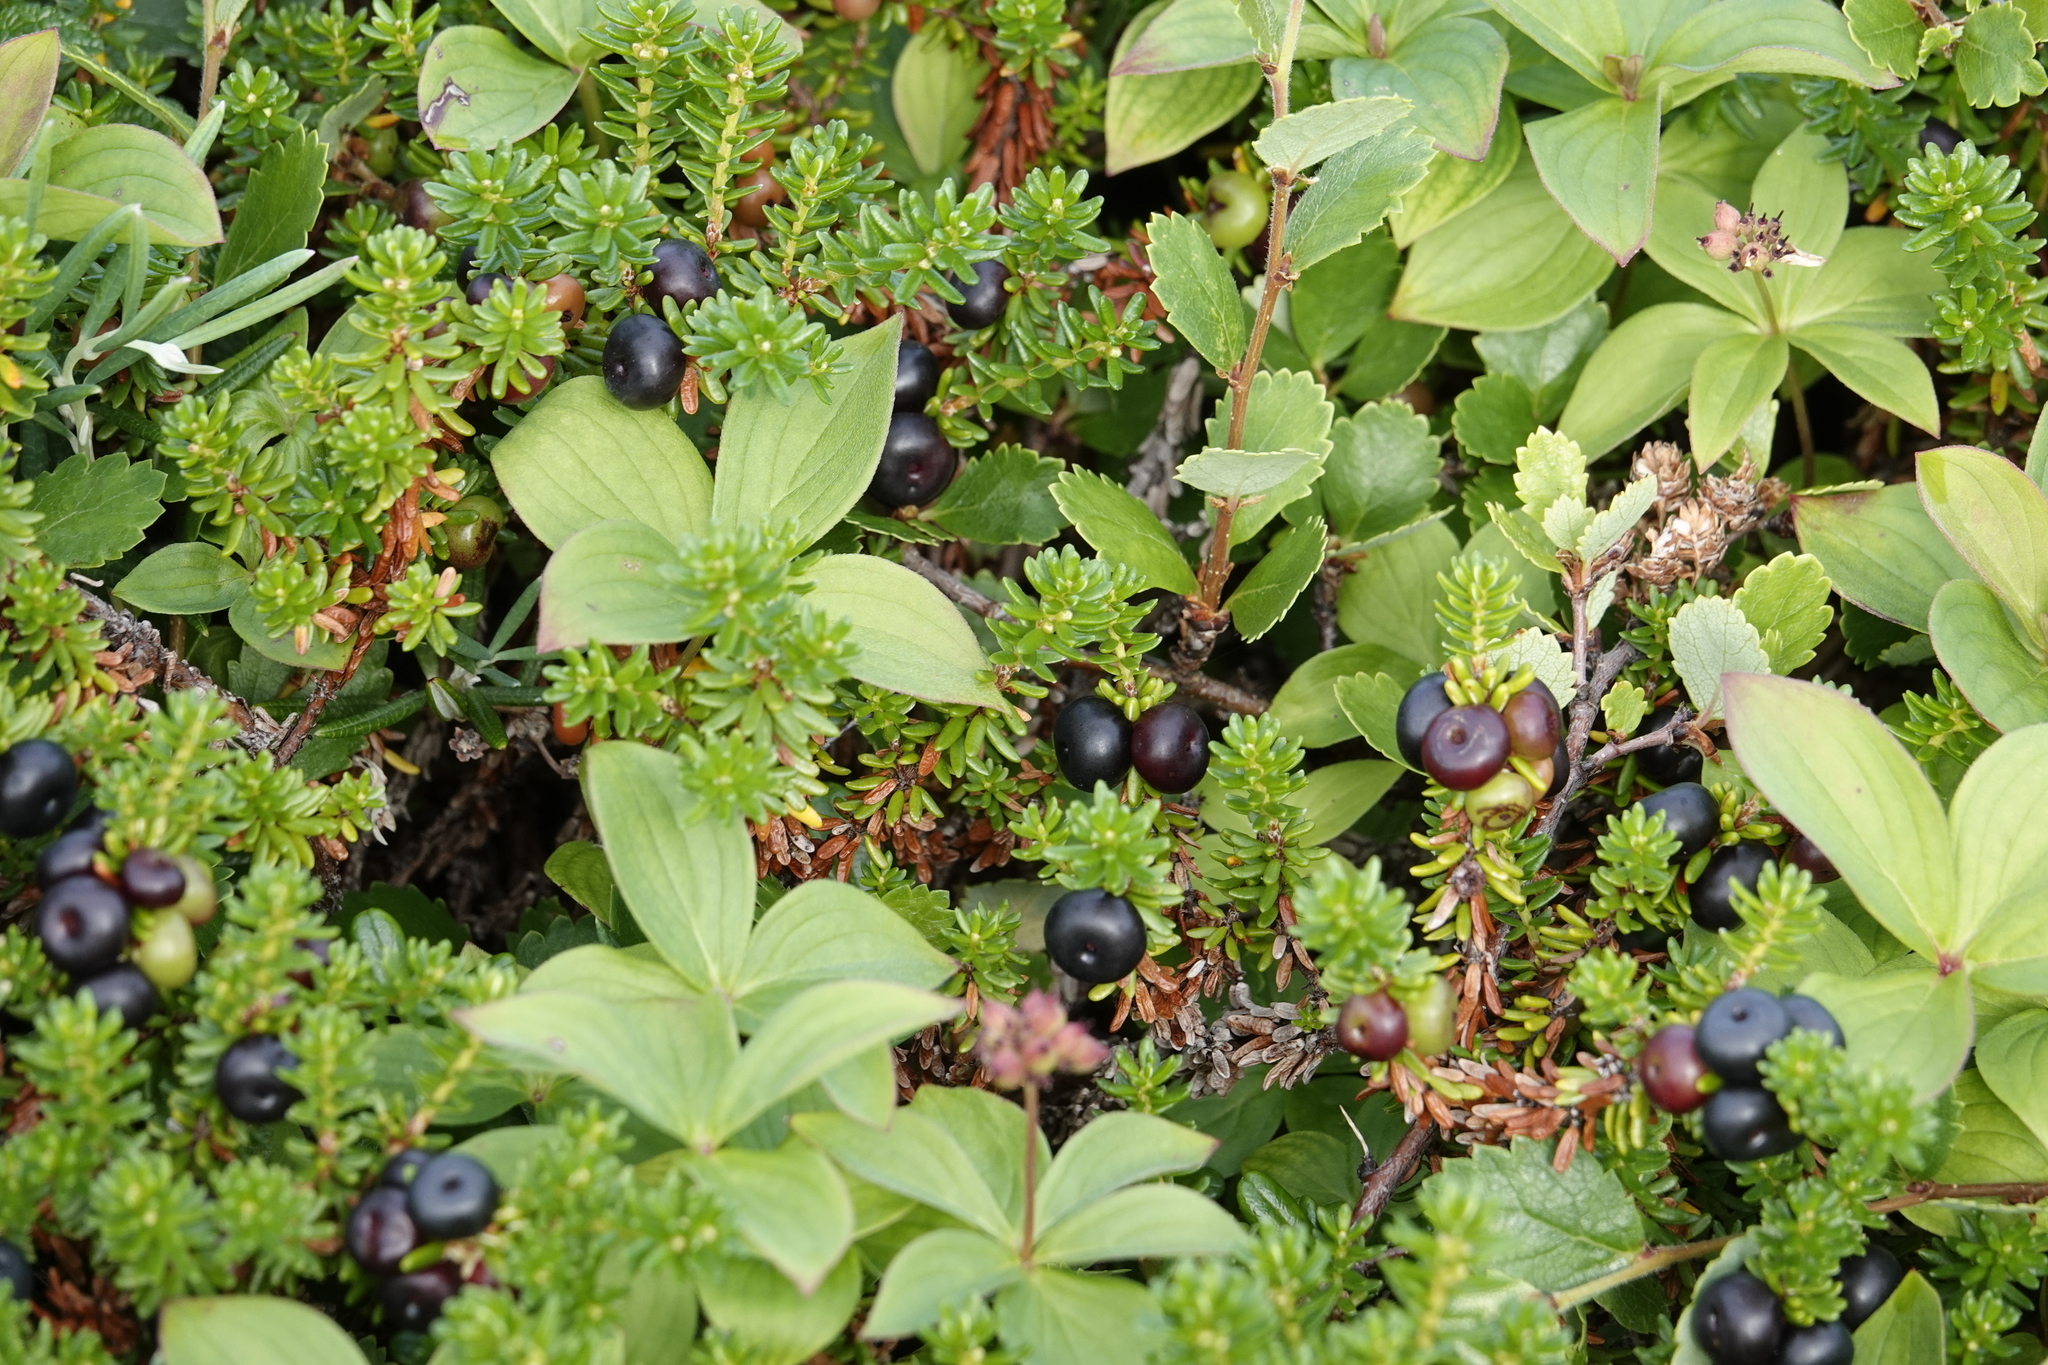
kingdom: Plantae
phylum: Tracheophyta
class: Magnoliopsida
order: Ericales
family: Ericaceae
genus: Empetrum
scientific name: Empetrum nigrum
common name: Black crowberry
